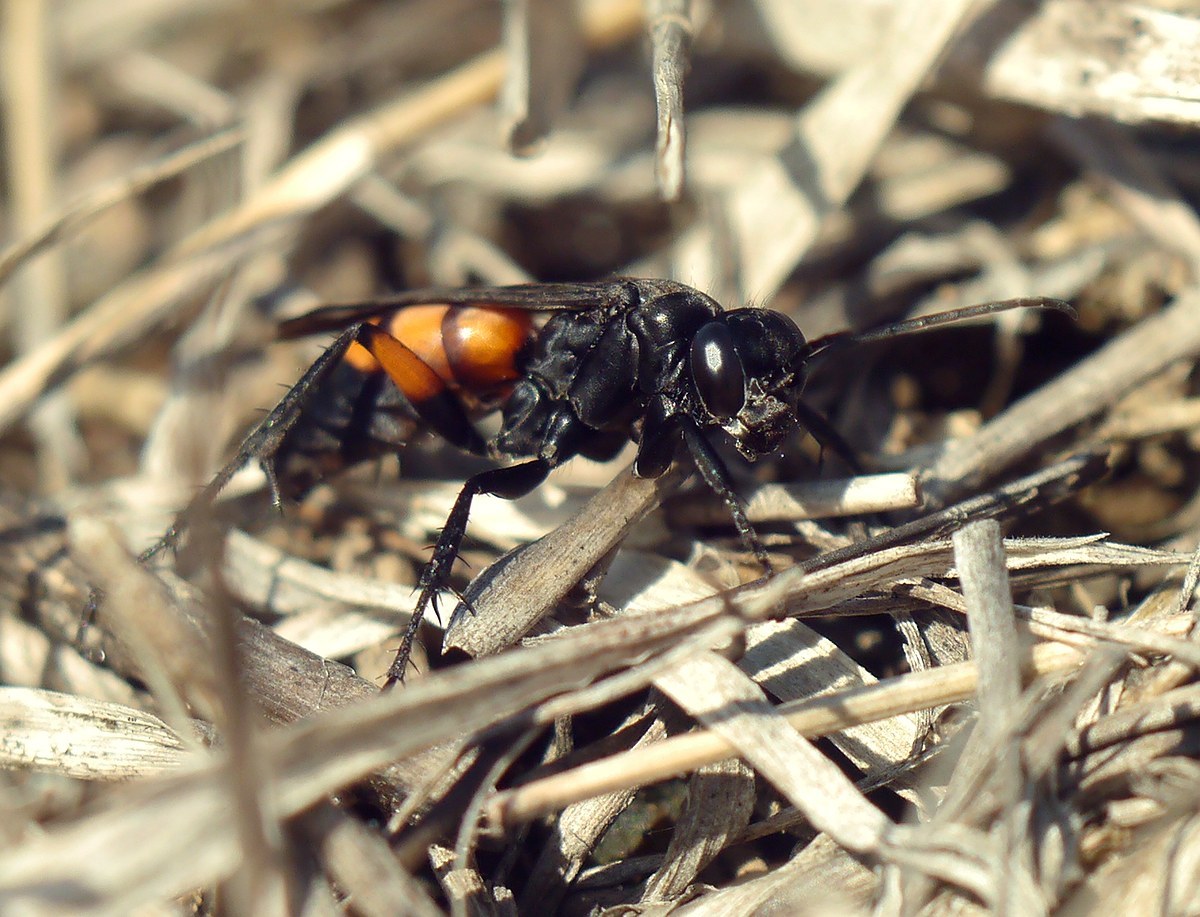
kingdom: Animalia
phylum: Arthropoda
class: Insecta
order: Hymenoptera
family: Pompilidae
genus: Anoplius
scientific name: Anoplius viaticus
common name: Black banded spider wasp
